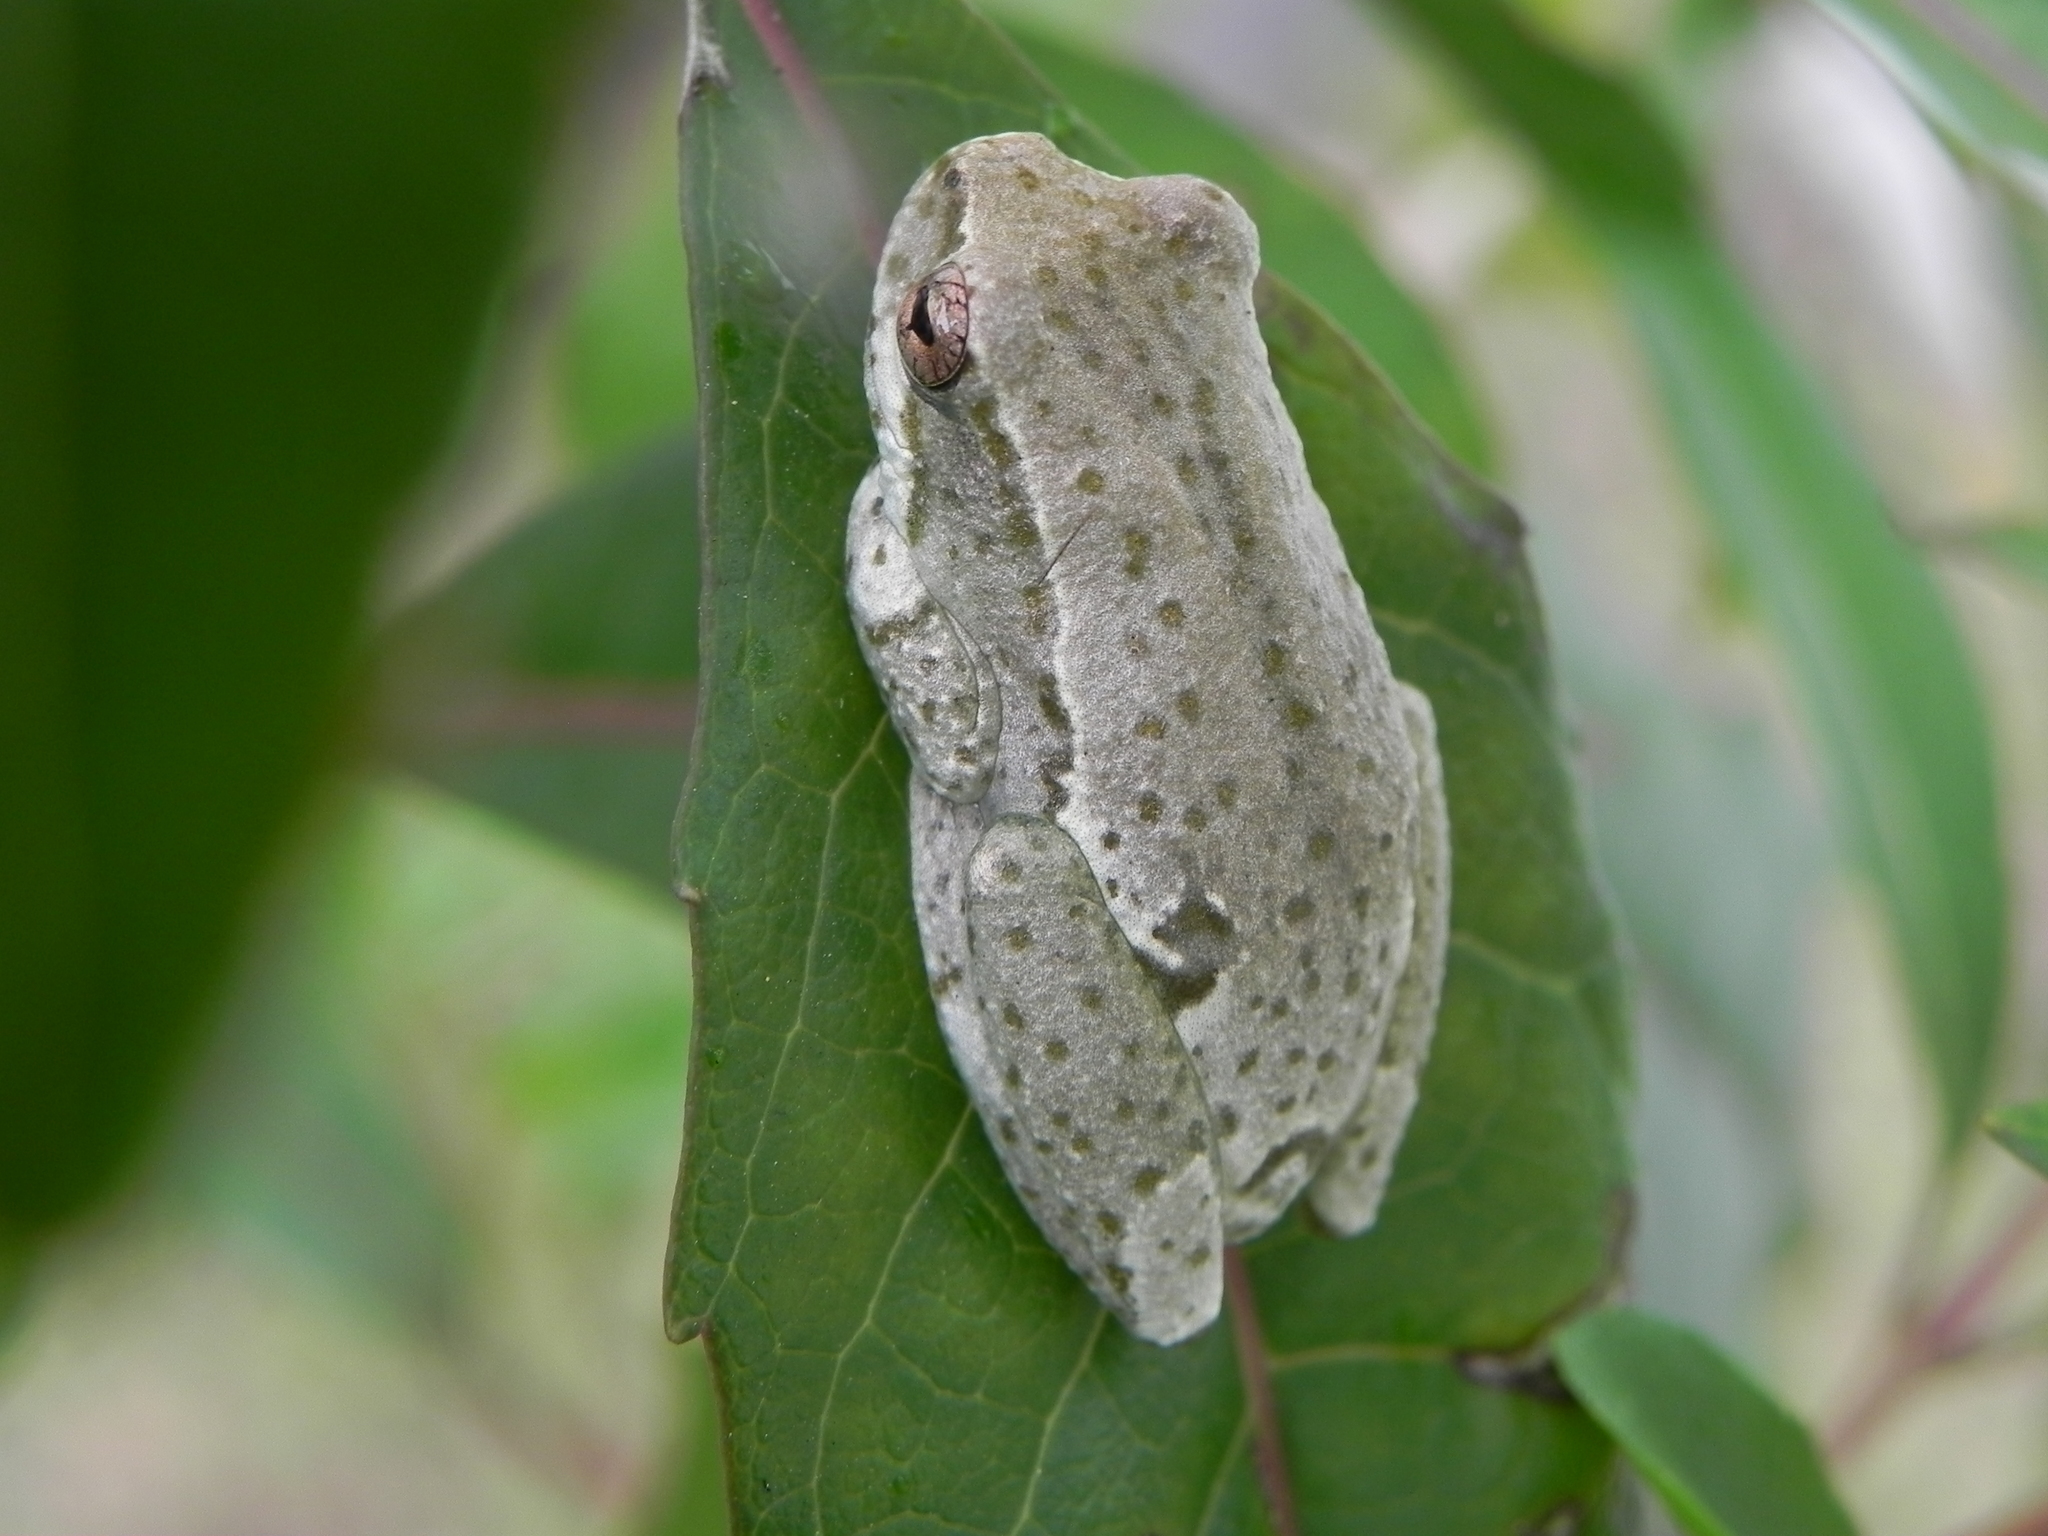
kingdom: Animalia
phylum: Chordata
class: Amphibia
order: Anura
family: Hyperoliidae
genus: Hyperolius
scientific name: Hyperolius marmoratus
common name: Painted reed frog
